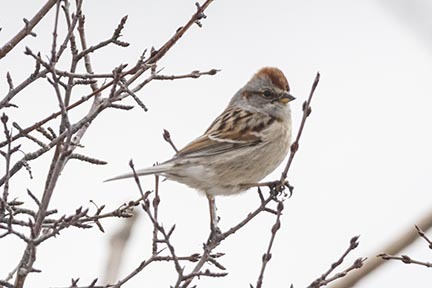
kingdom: Animalia
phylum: Chordata
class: Aves
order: Passeriformes
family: Passerellidae
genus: Spizelloides
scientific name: Spizelloides arborea
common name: American tree sparrow
